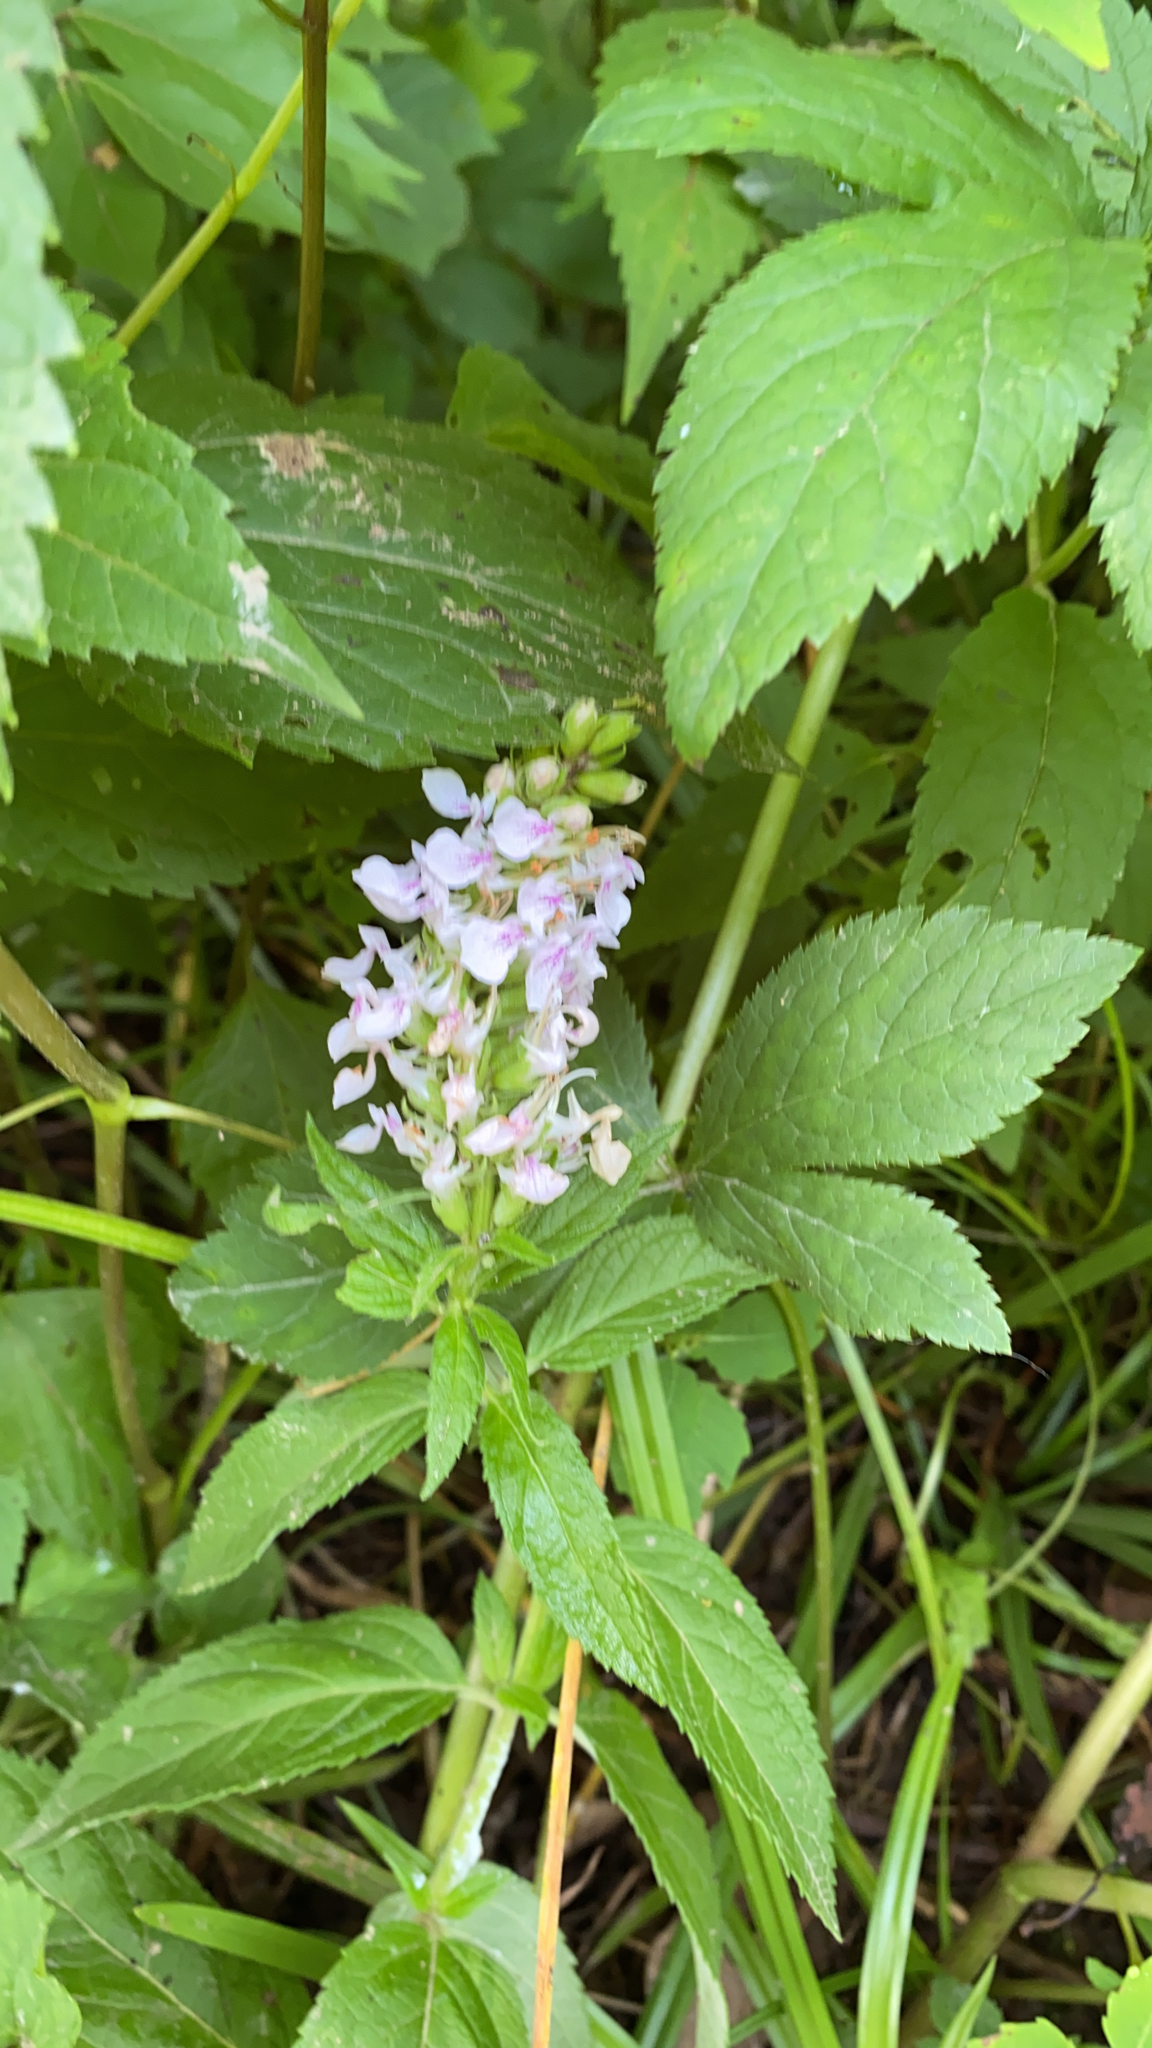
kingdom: Plantae
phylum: Tracheophyta
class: Magnoliopsida
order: Lamiales
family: Lamiaceae
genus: Teucrium
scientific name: Teucrium canadense
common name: American germander
